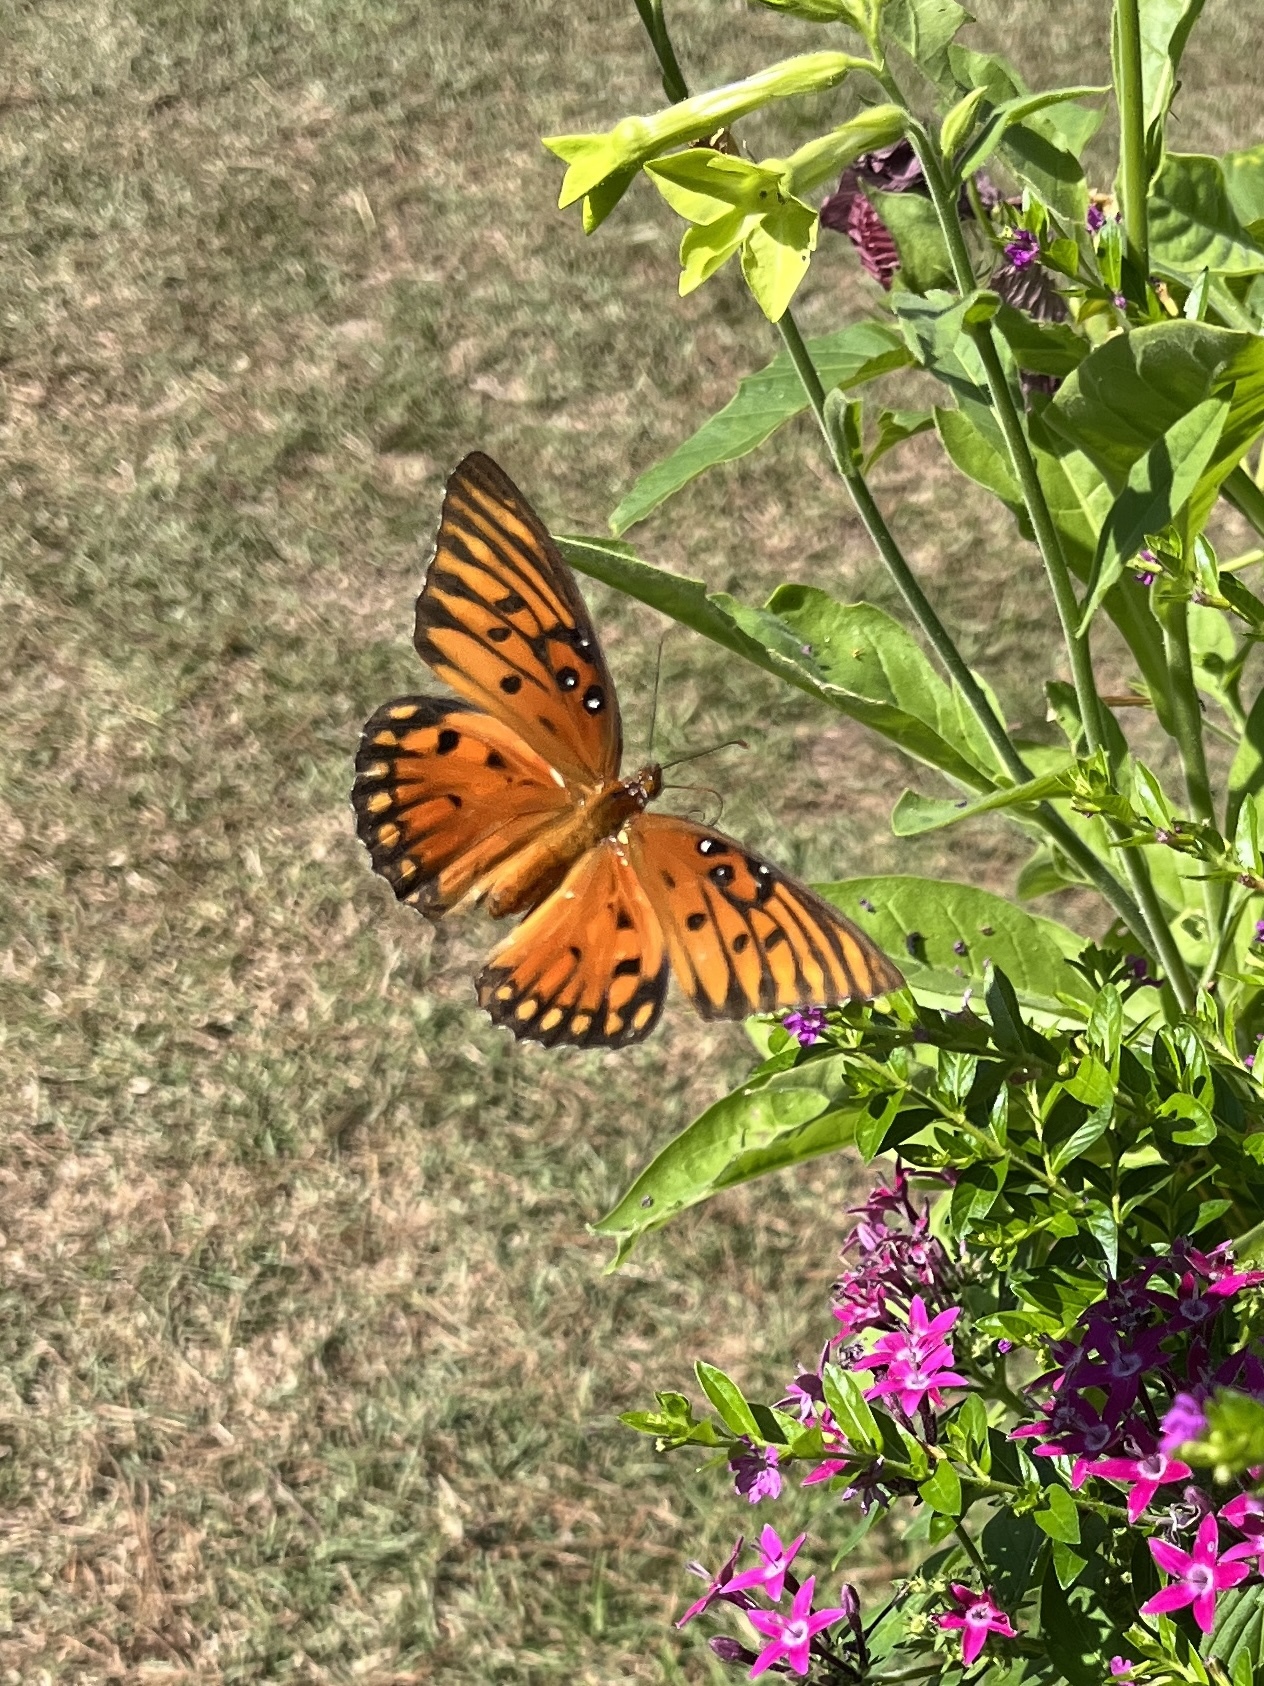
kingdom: Animalia
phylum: Arthropoda
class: Insecta
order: Lepidoptera
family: Nymphalidae
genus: Dione
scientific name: Dione vanillae
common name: Gulf fritillary
